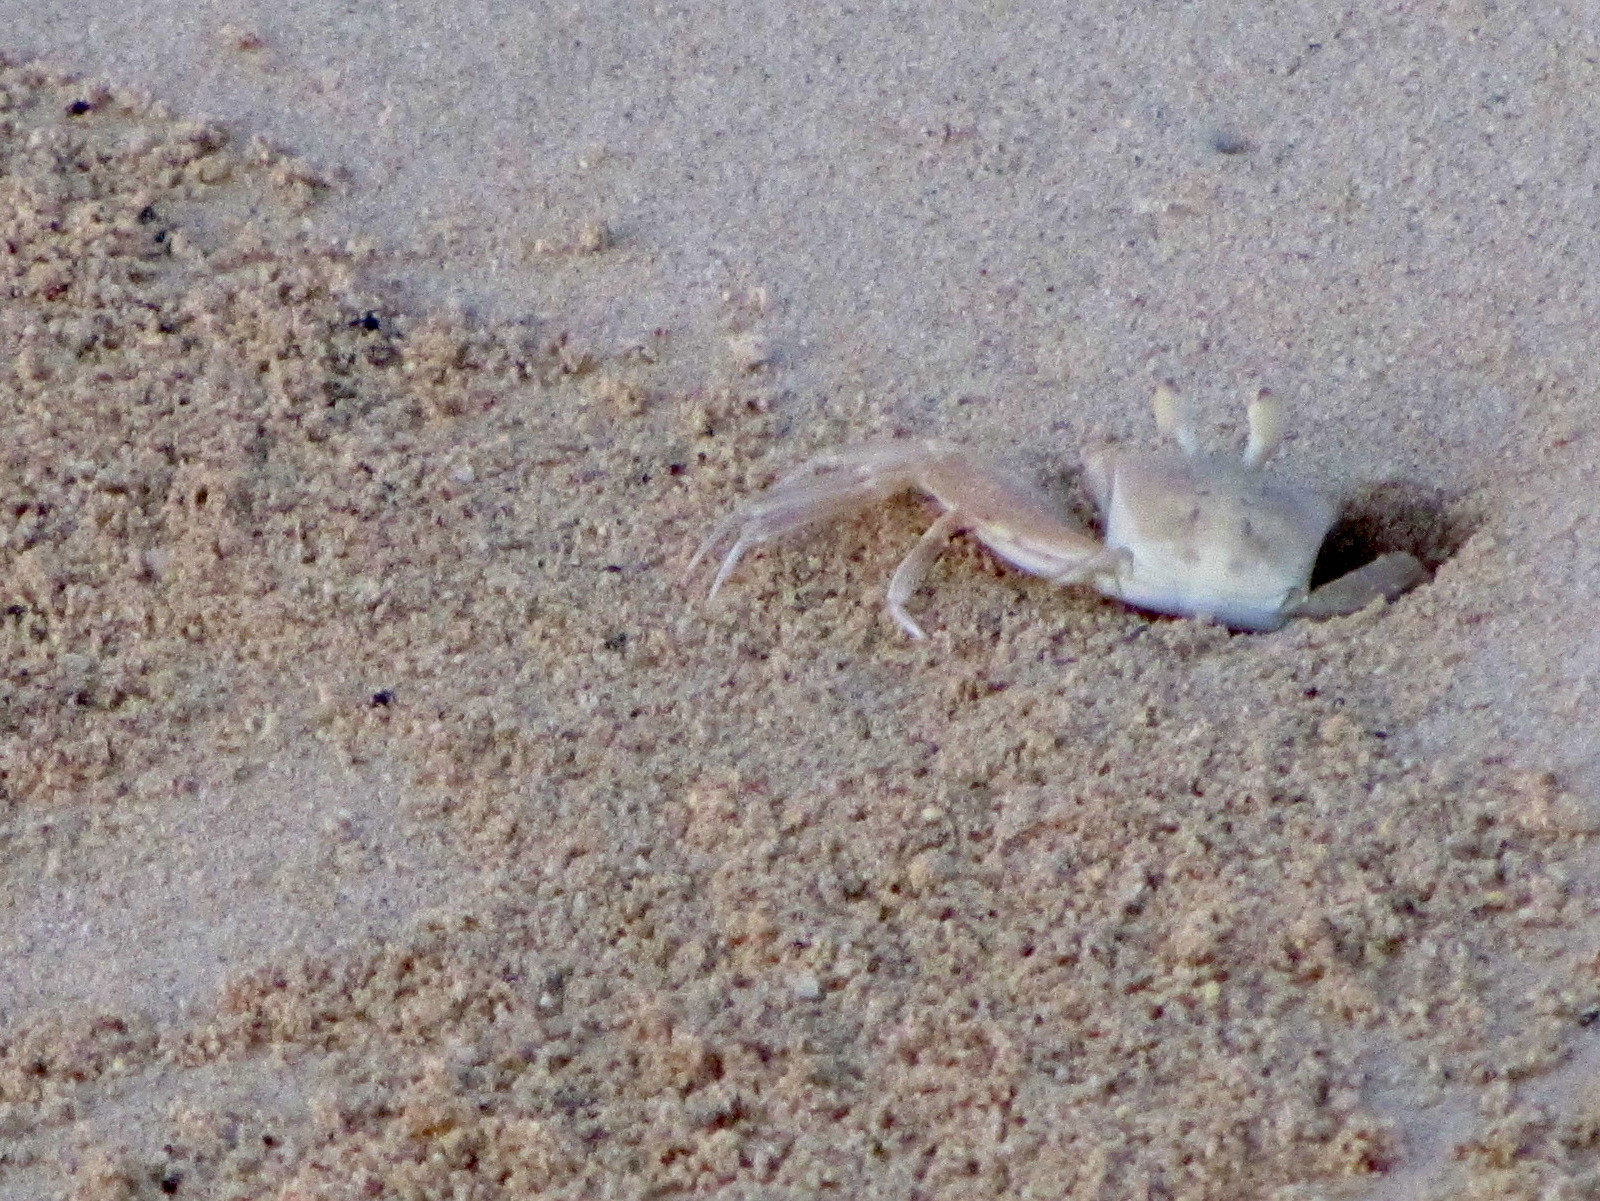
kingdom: Animalia
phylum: Arthropoda
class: Malacostraca
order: Decapoda
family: Ocypodidae
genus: Ocypode
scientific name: Ocypode africana
